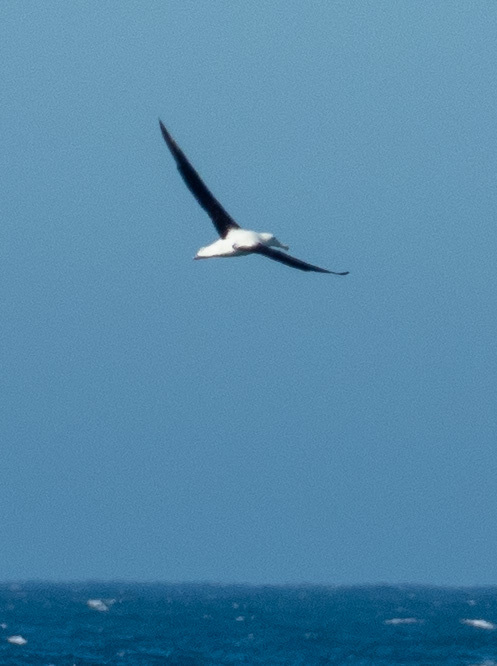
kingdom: Animalia
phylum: Chordata
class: Aves
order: Procellariiformes
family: Diomedeidae
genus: Diomedea
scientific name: Diomedea sanfordi
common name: Northern royal albatross
